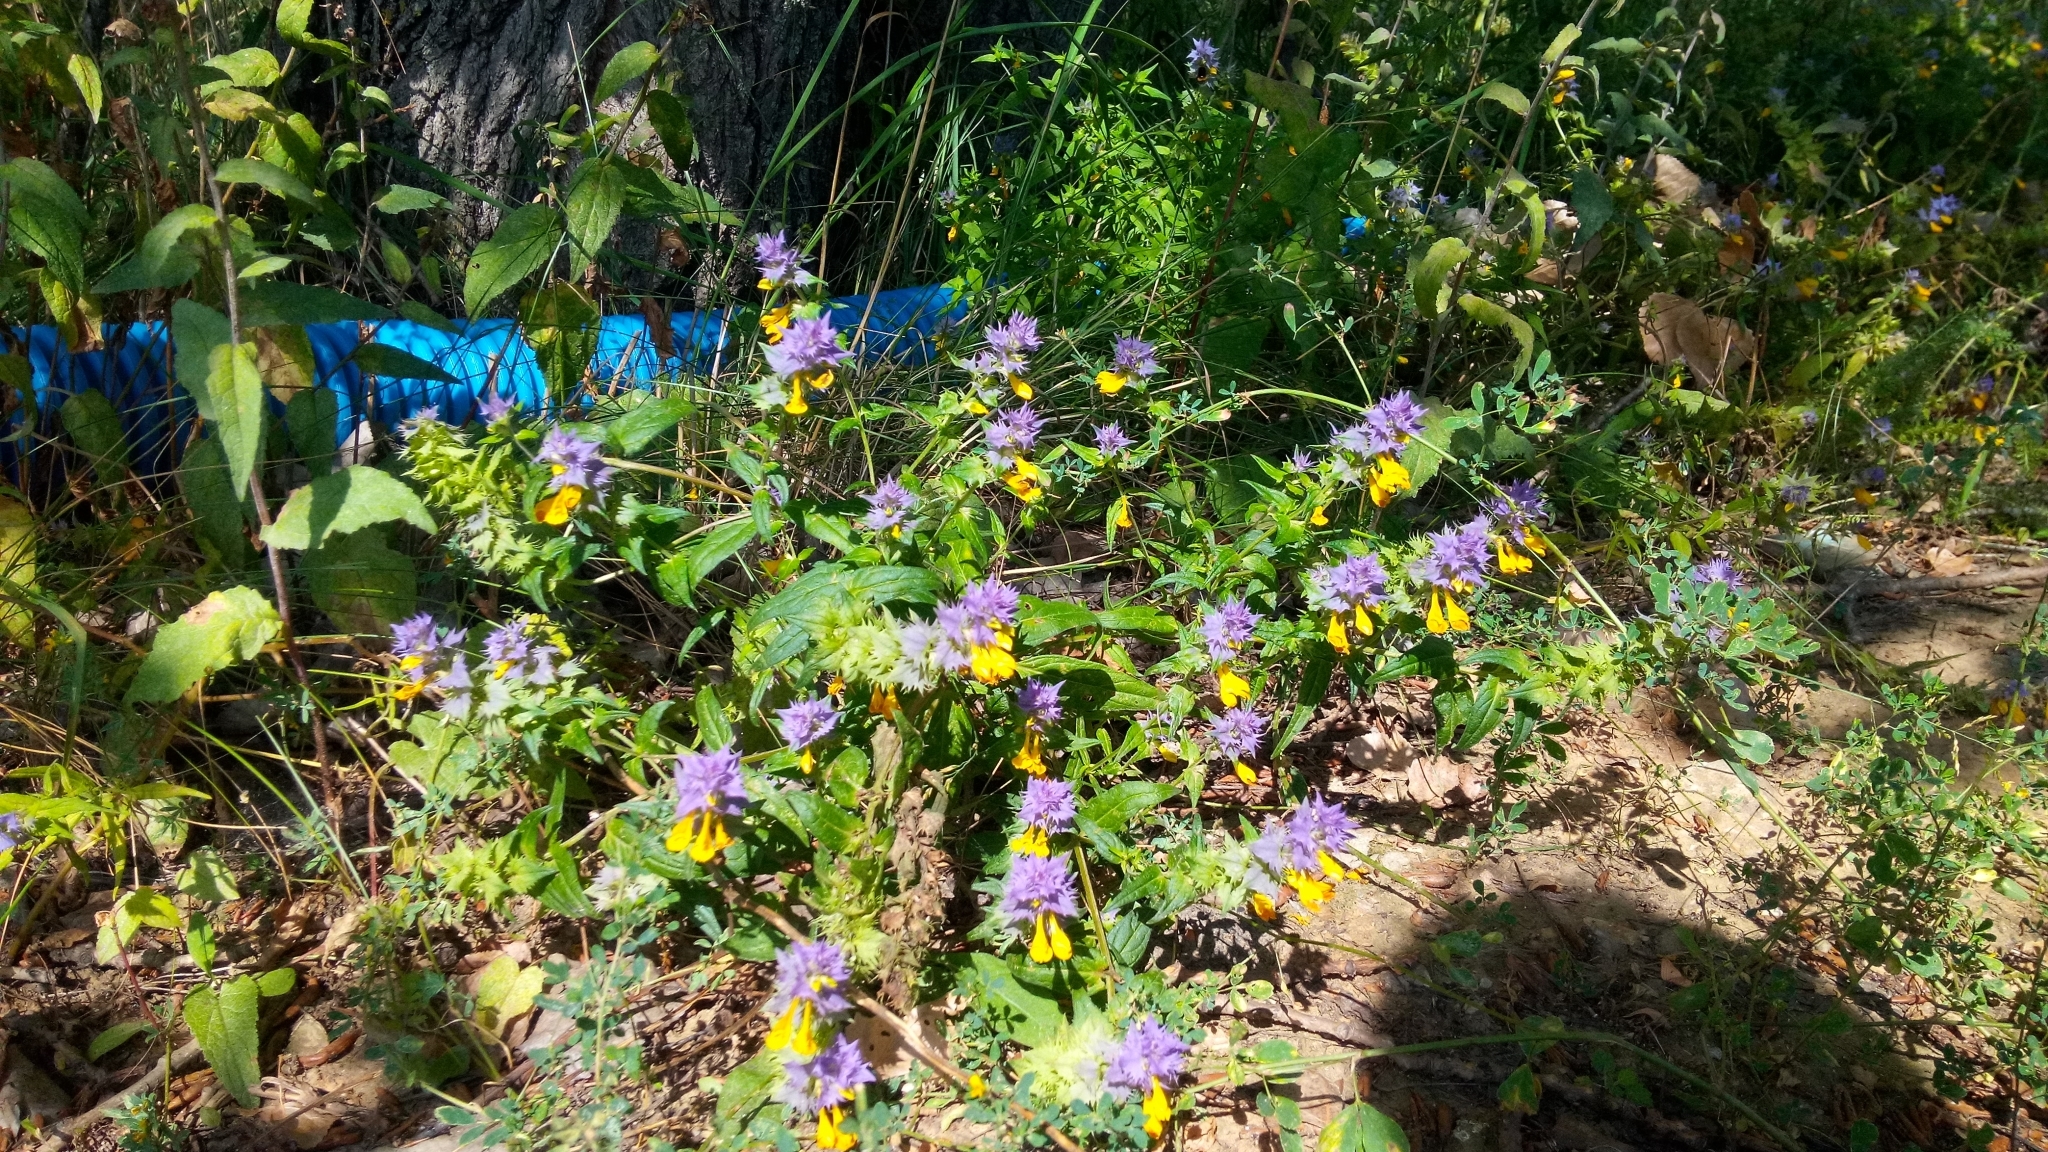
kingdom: Plantae
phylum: Tracheophyta
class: Magnoliopsida
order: Lamiales
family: Orobanchaceae
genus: Melampyrum
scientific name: Melampyrum nemorosum
